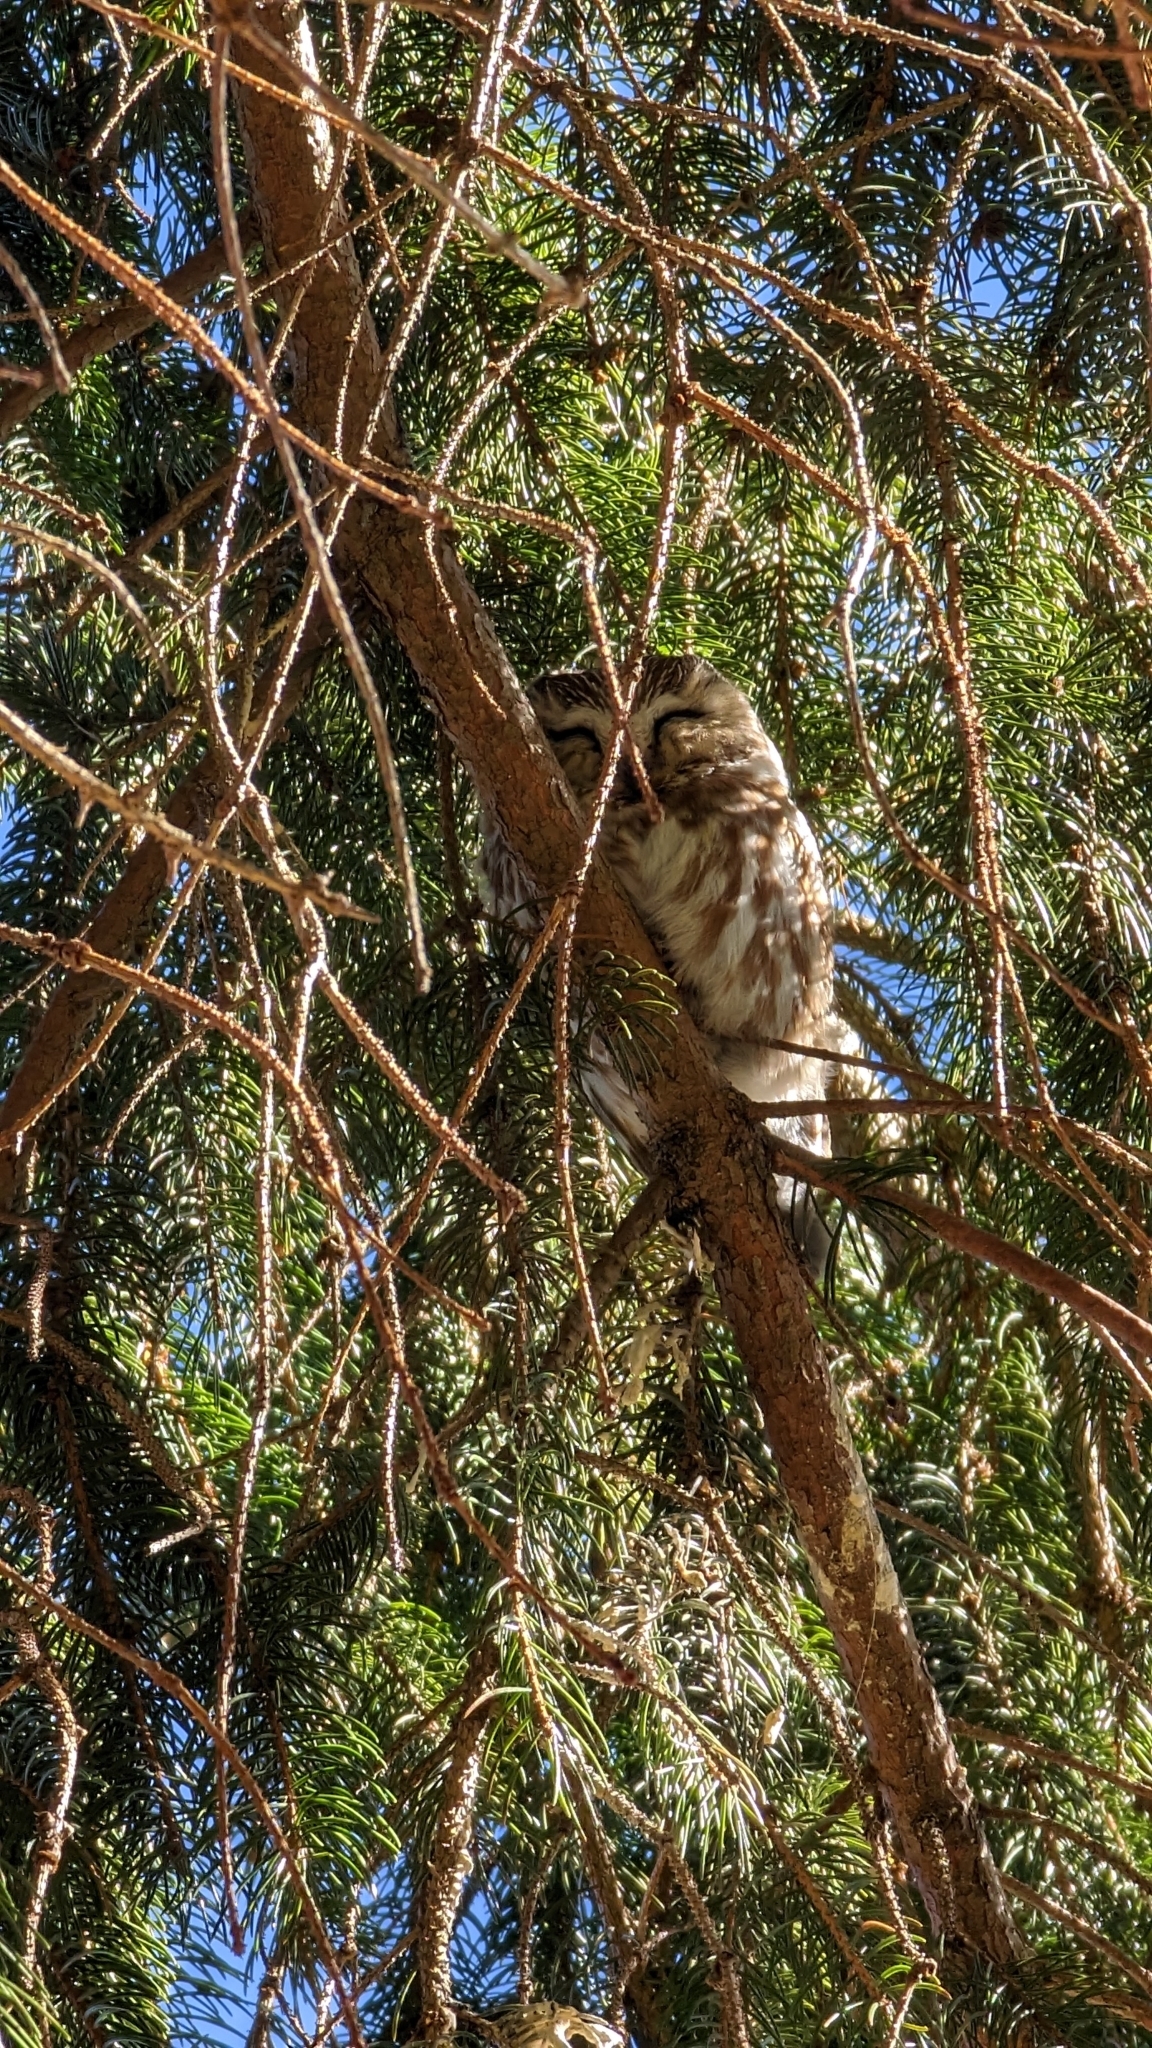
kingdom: Animalia
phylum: Chordata
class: Aves
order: Strigiformes
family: Strigidae
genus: Aegolius
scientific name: Aegolius acadicus
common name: Northern saw-whet owl
